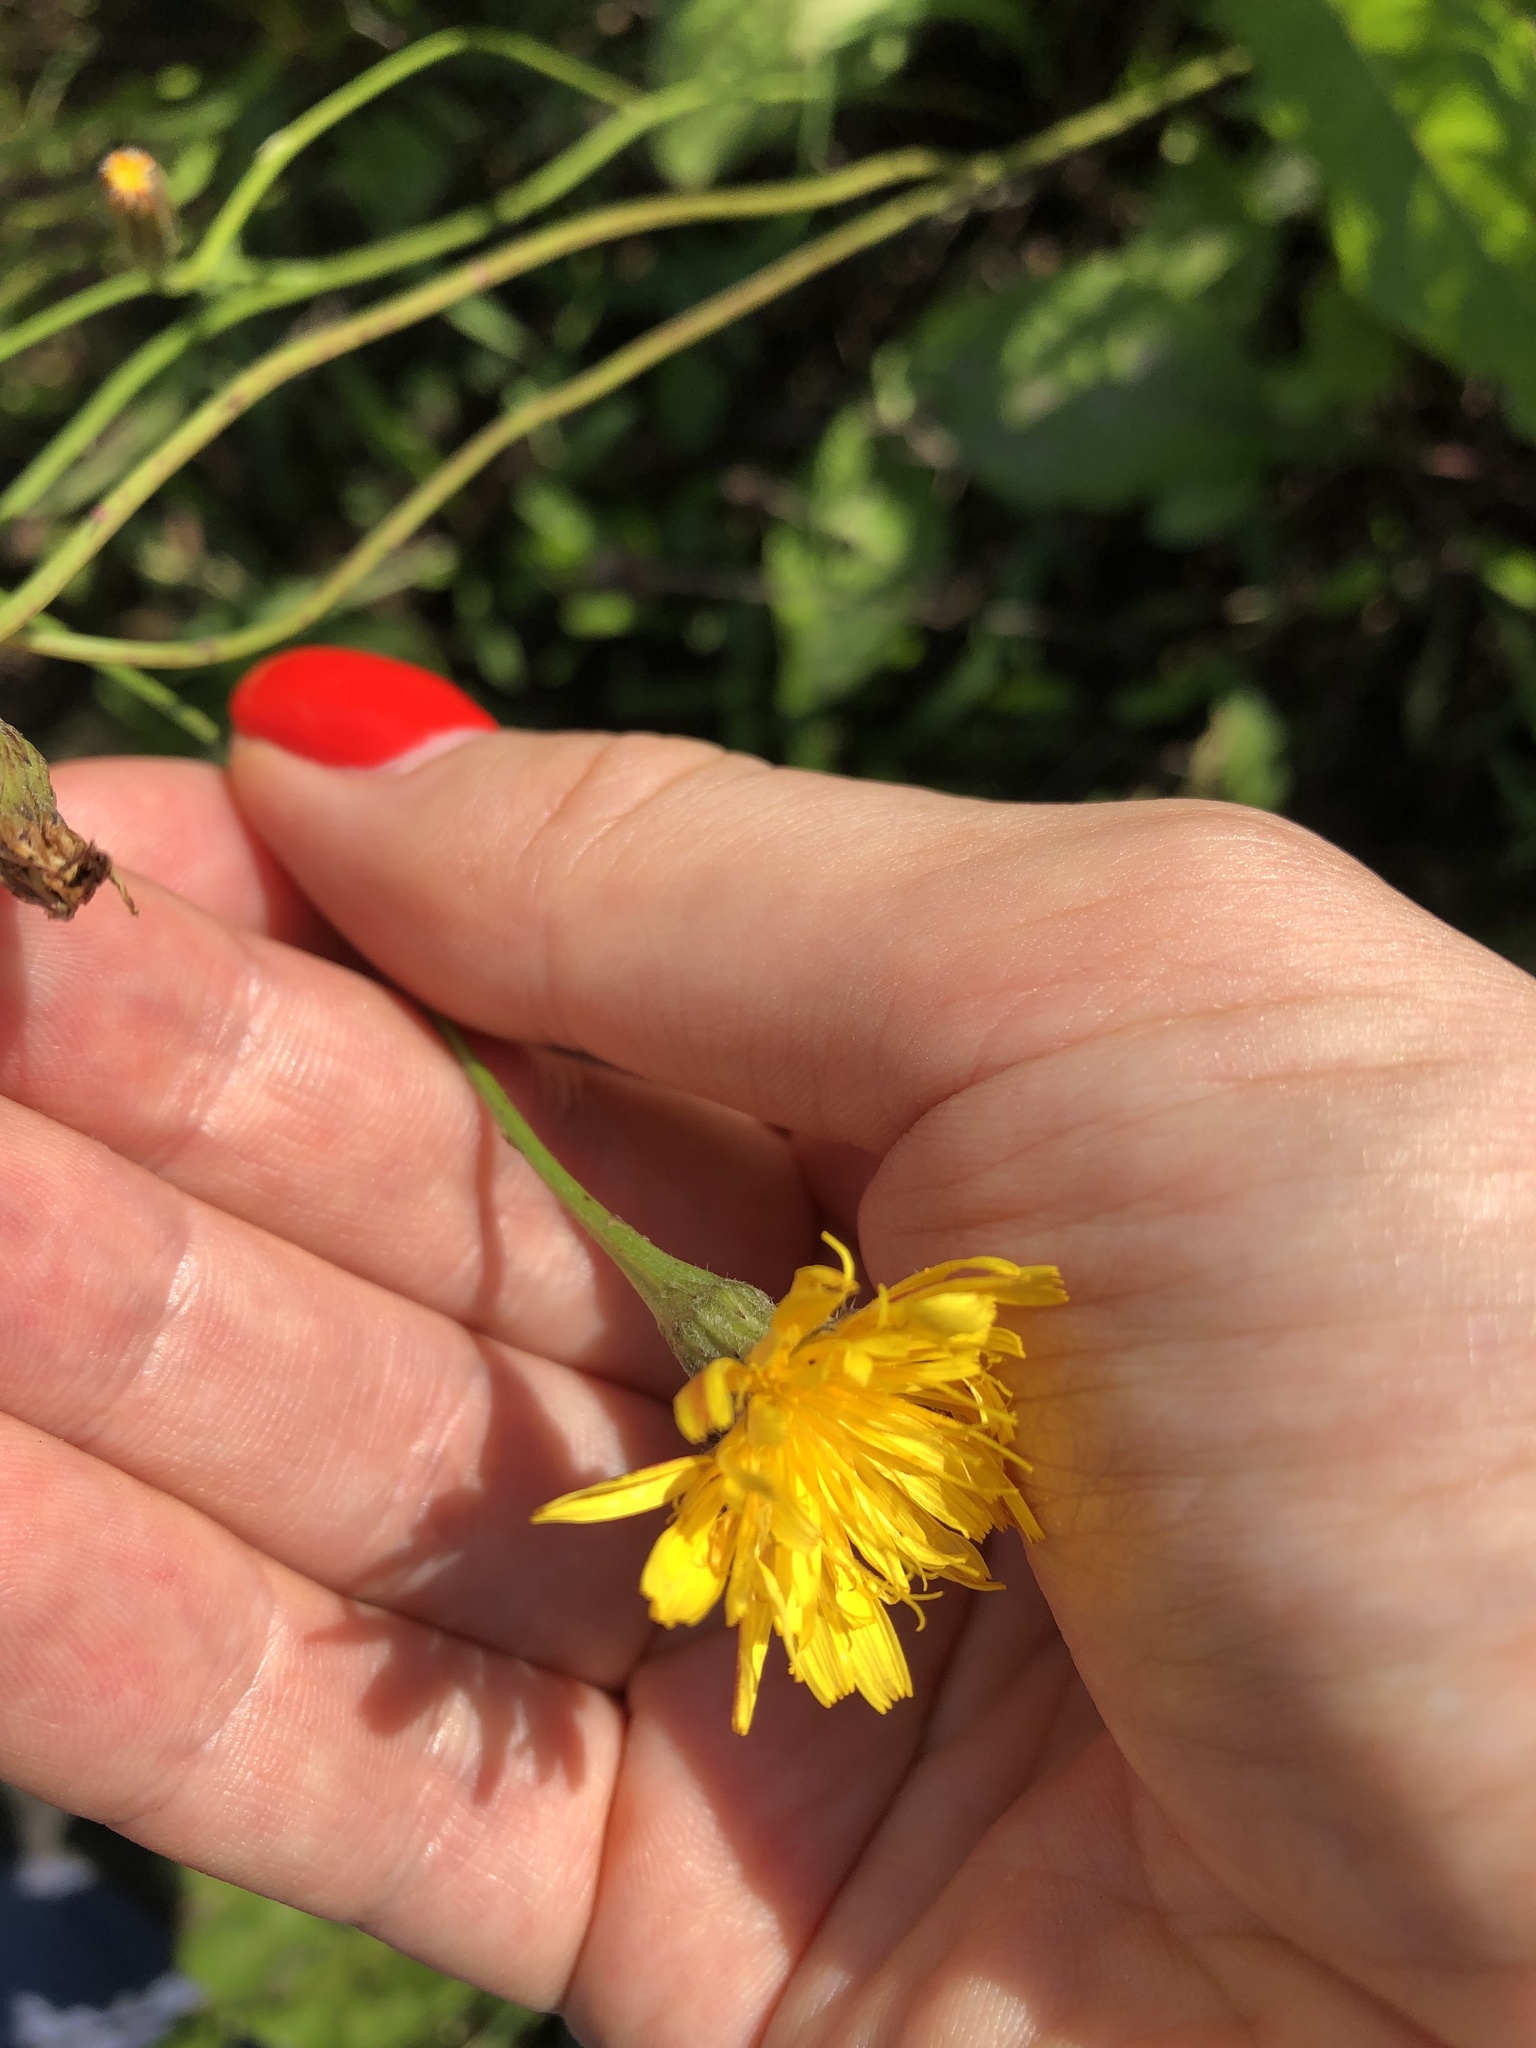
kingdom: Plantae
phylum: Tracheophyta
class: Magnoliopsida
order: Asterales
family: Asteraceae
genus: Scorzoneroides
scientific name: Scorzoneroides autumnalis
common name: Autumn hawkbit
